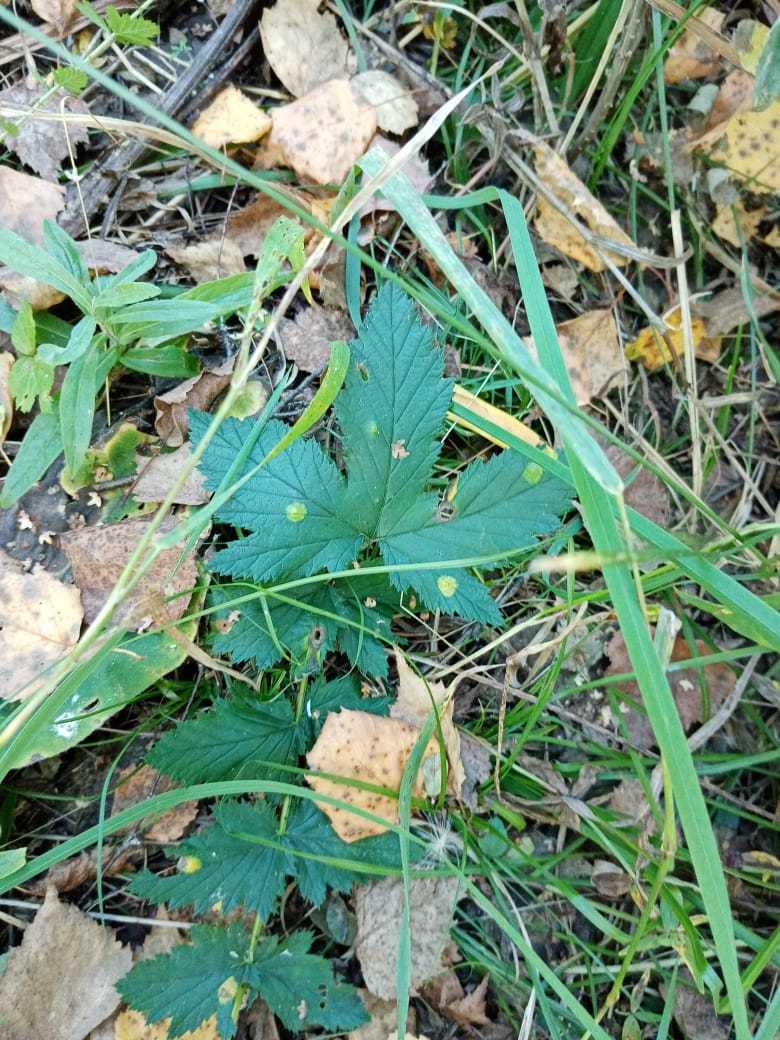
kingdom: Plantae
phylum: Tracheophyta
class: Magnoliopsida
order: Rosales
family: Rosaceae
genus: Filipendula
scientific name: Filipendula ulmaria
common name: Meadowsweet
